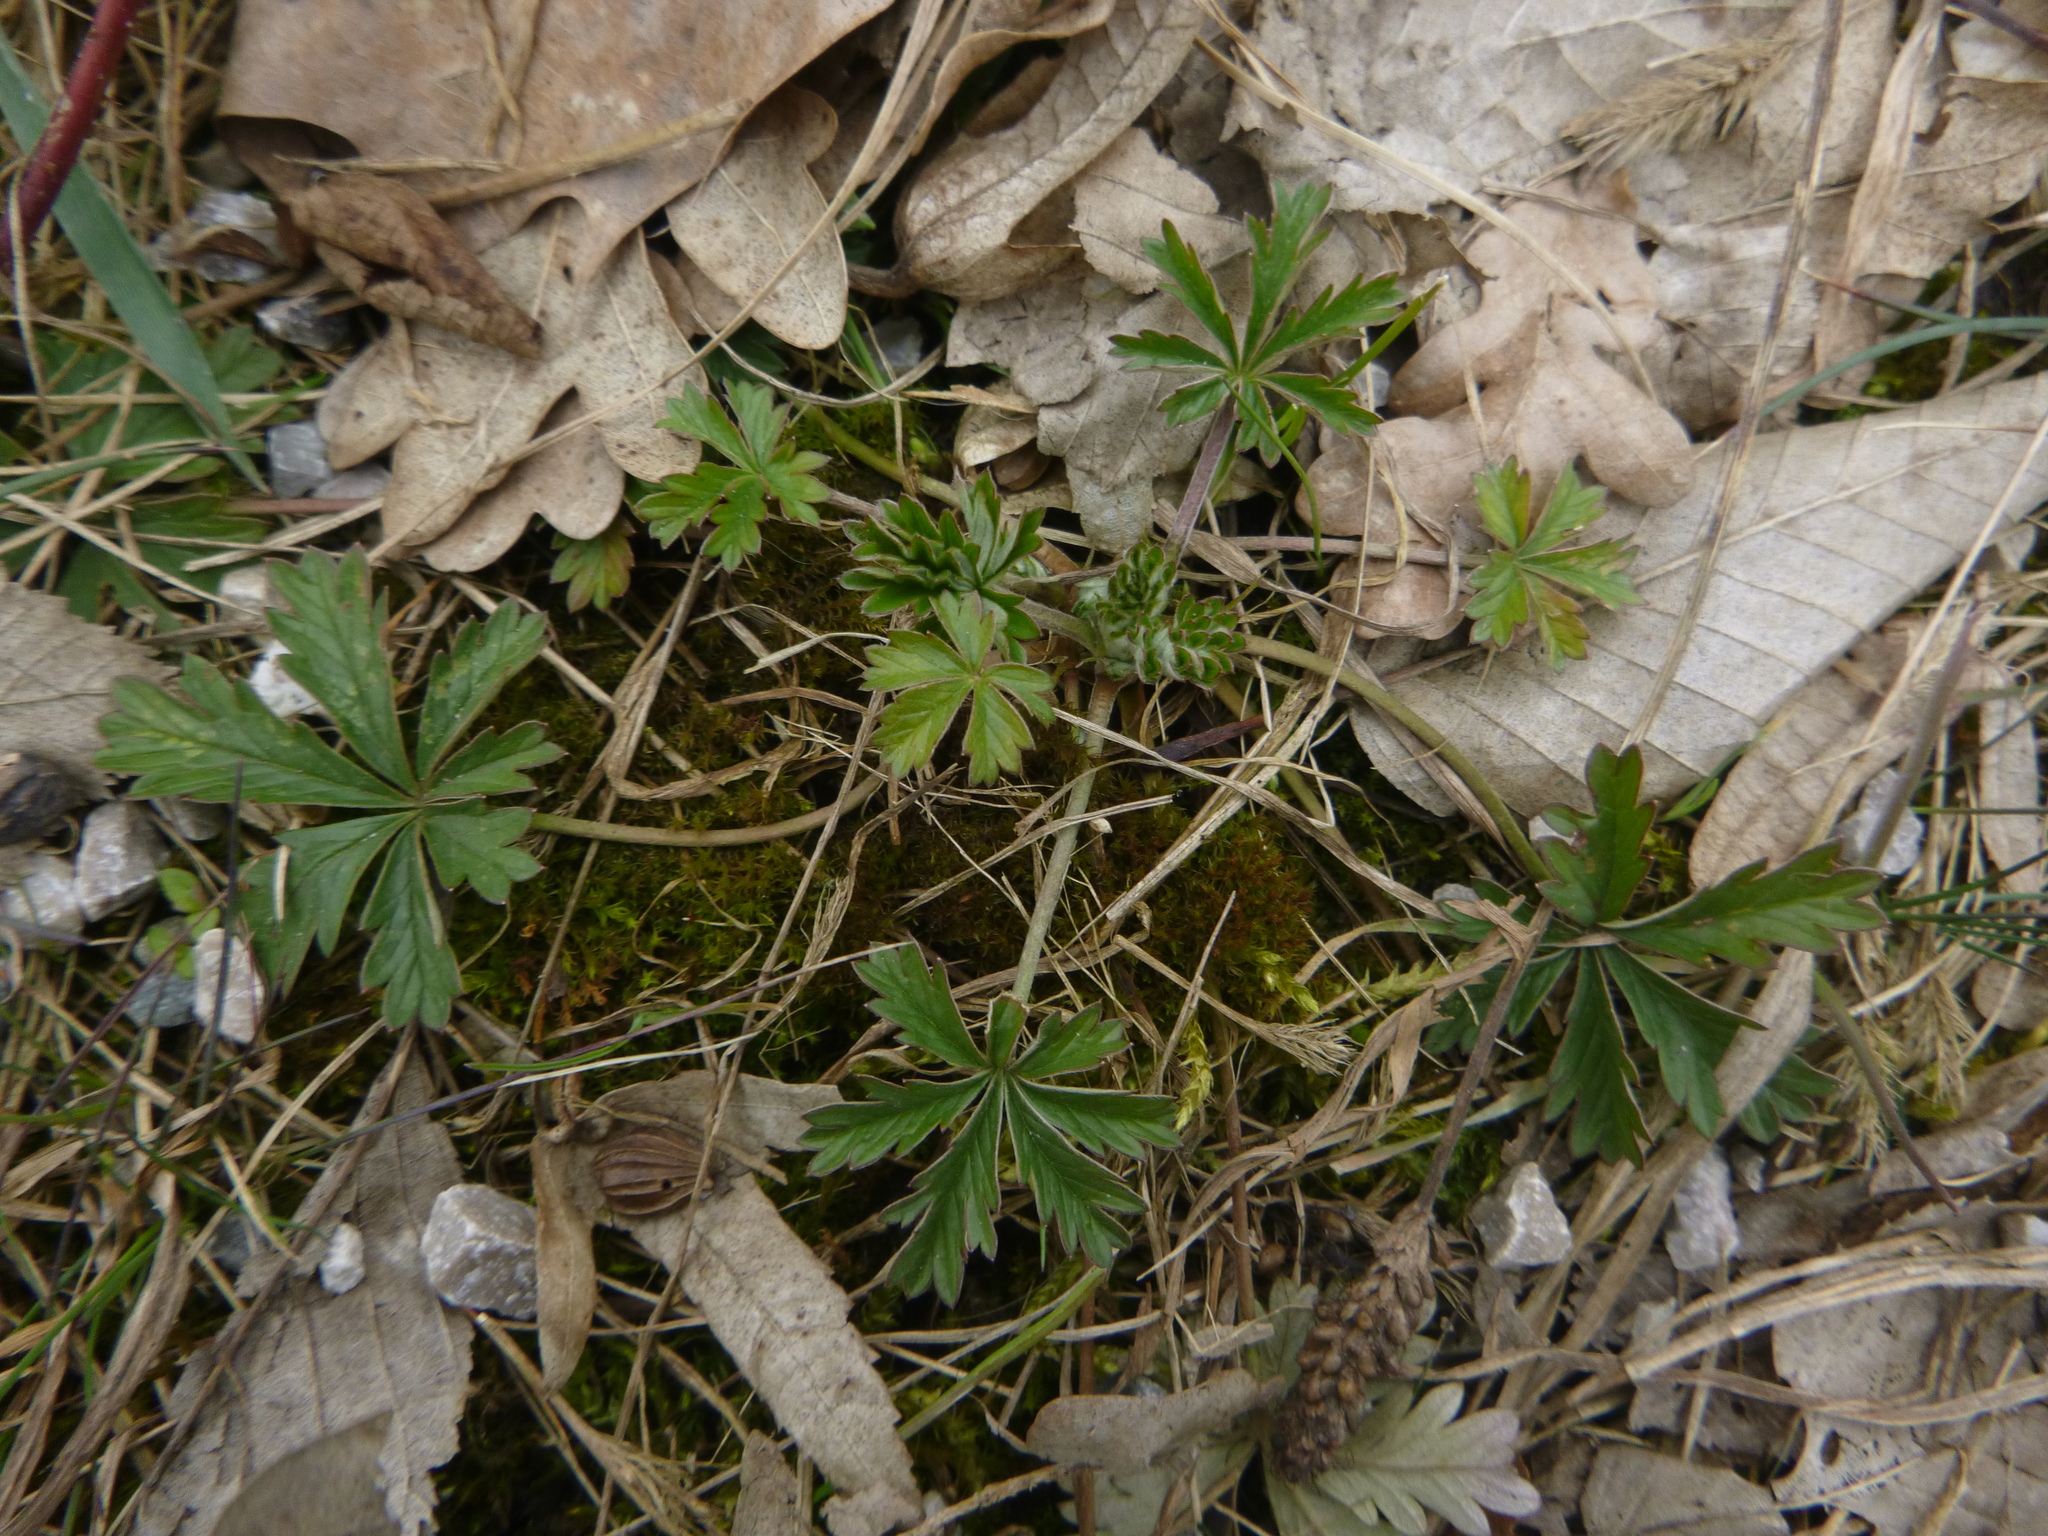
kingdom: Plantae
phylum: Tracheophyta
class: Magnoliopsida
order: Rosales
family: Rosaceae
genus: Potentilla
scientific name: Potentilla argentea
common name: Hoary cinquefoil
